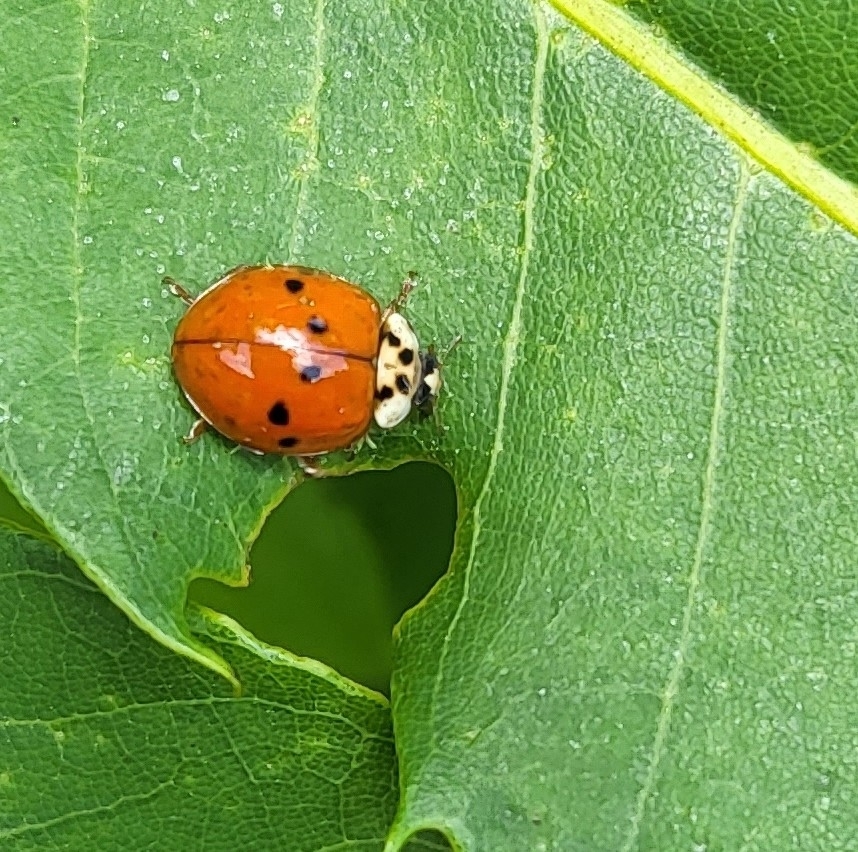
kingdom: Animalia
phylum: Arthropoda
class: Insecta
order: Coleoptera
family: Coccinellidae
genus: Harmonia
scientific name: Harmonia axyridis
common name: Harlequin ladybird
